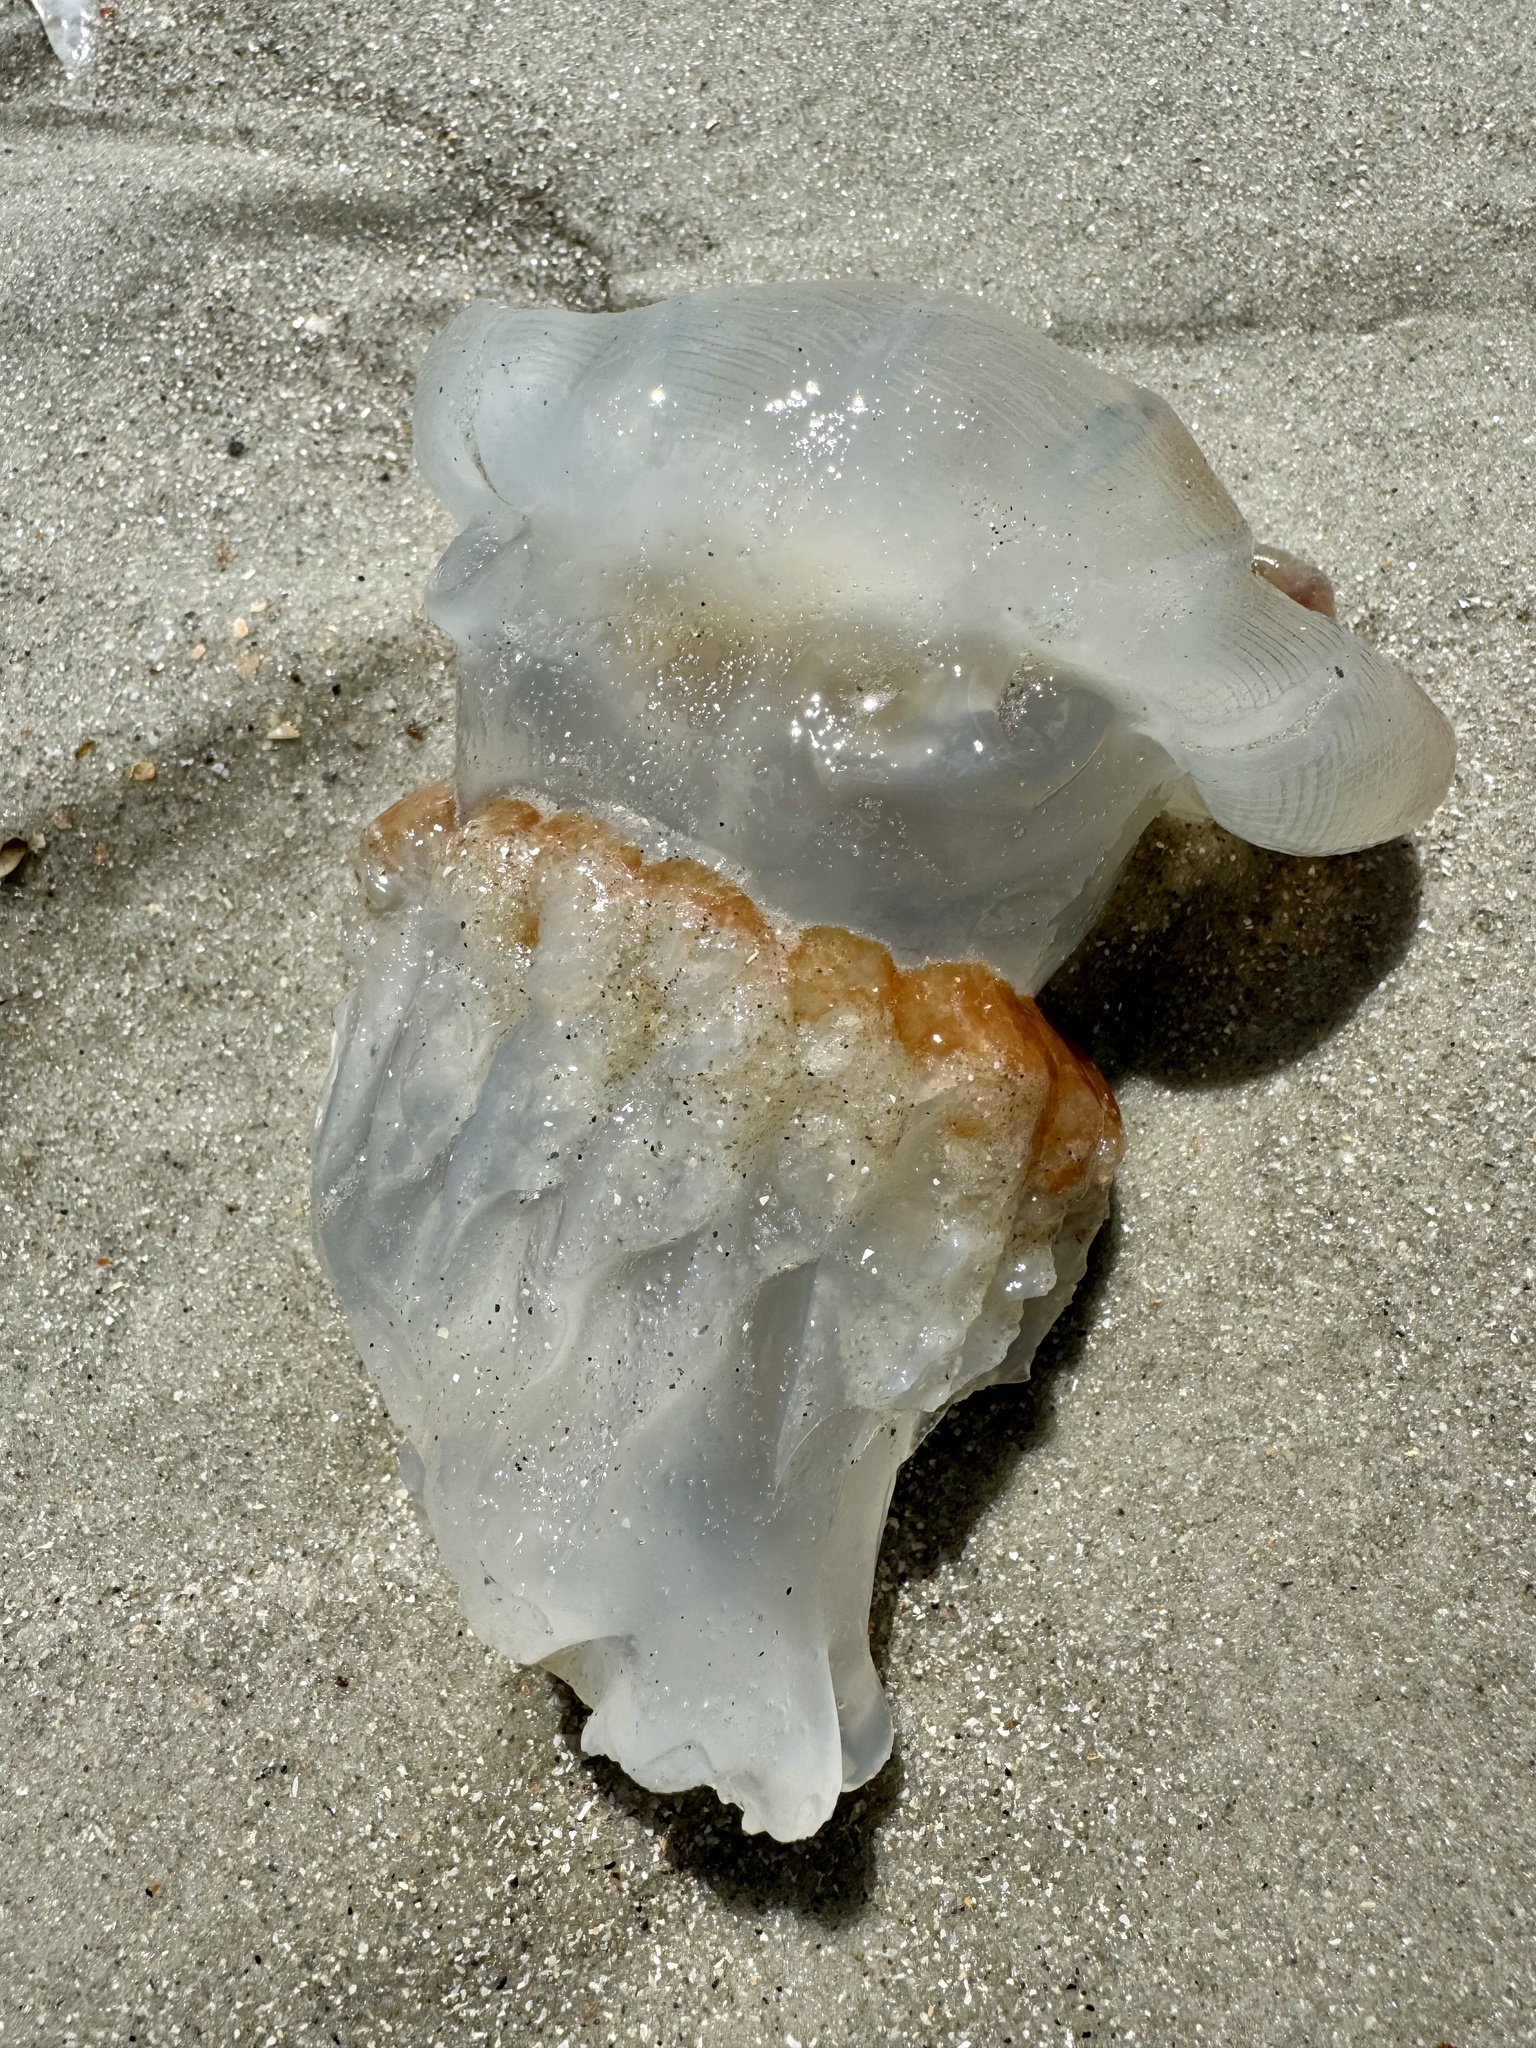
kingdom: Animalia
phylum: Cnidaria
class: Scyphozoa
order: Rhizostomeae
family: Stomolophidae
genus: Stomolophus
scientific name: Stomolophus meleagris
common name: Cabbagehead
